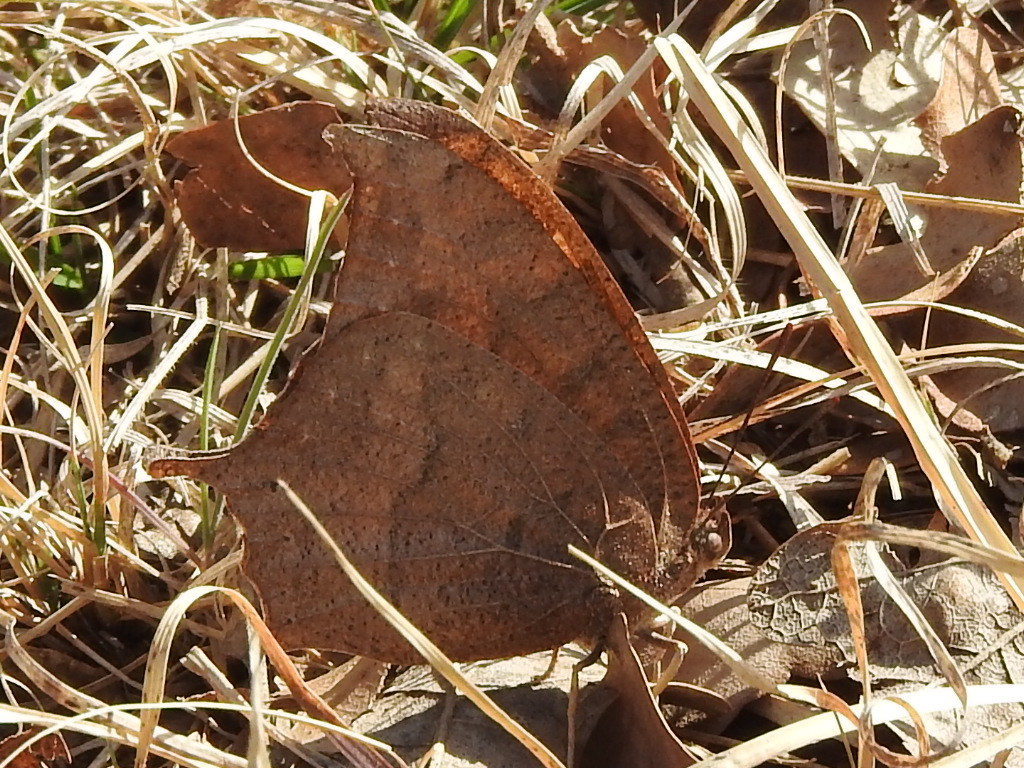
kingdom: Animalia
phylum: Arthropoda
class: Insecta
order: Lepidoptera
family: Nymphalidae
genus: Anaea
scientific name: Anaea andria
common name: Goatweed leafwing
